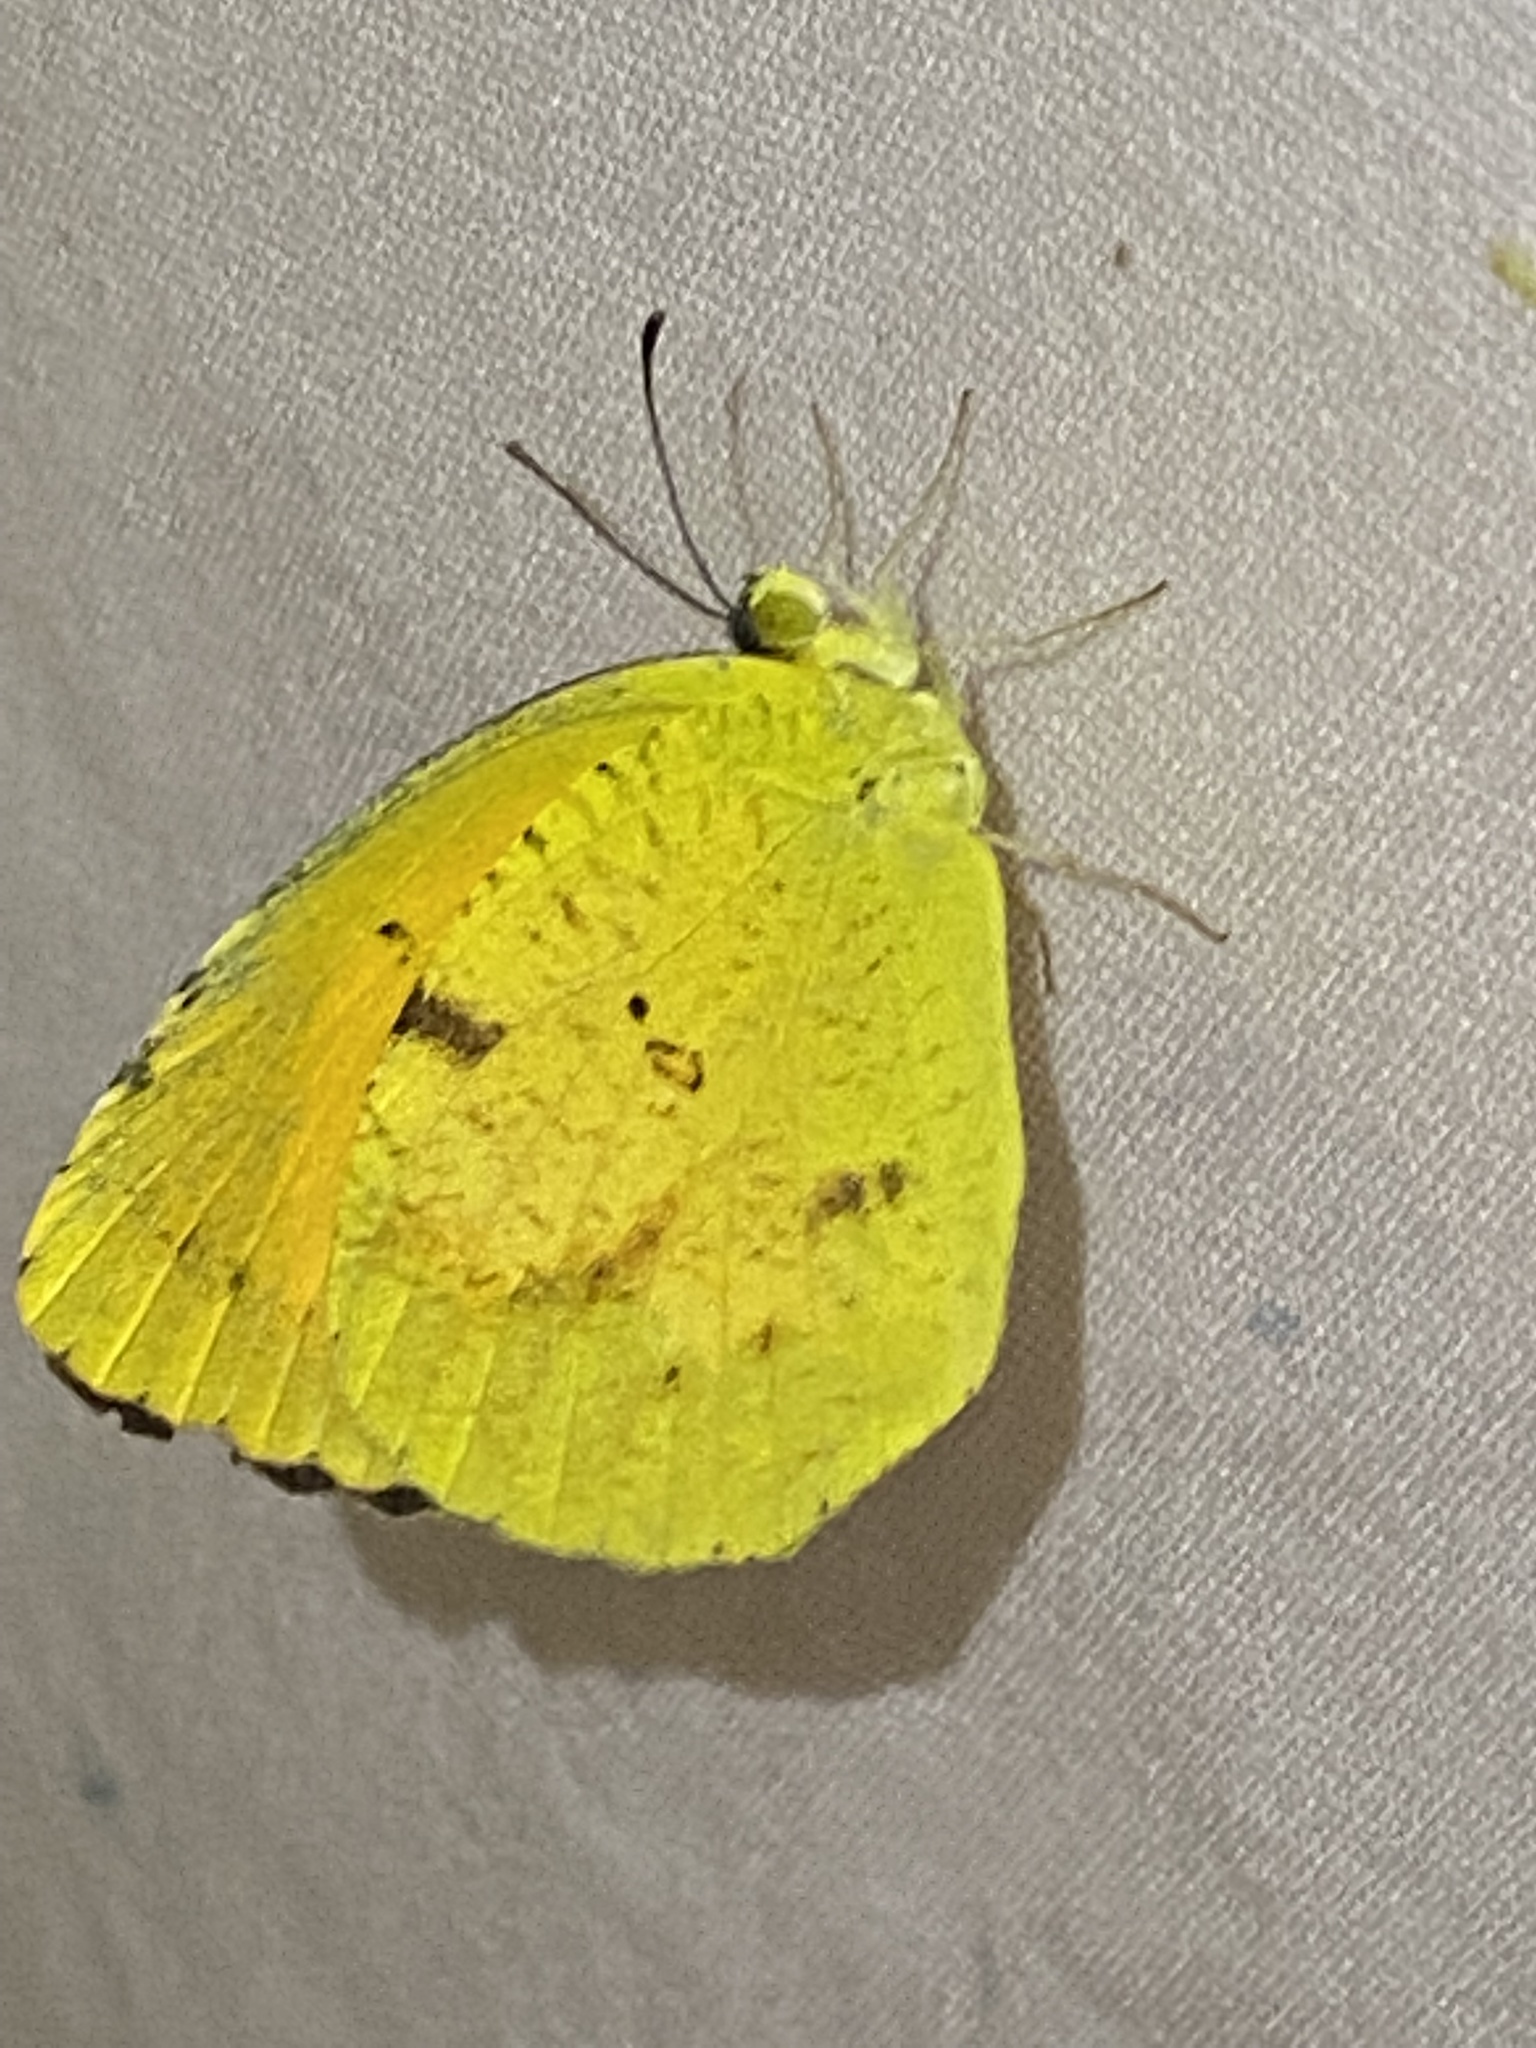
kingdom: Animalia
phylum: Arthropoda
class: Insecta
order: Lepidoptera
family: Pieridae
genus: Abaeis
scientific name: Abaeis nicippe
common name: Sleepy orange
